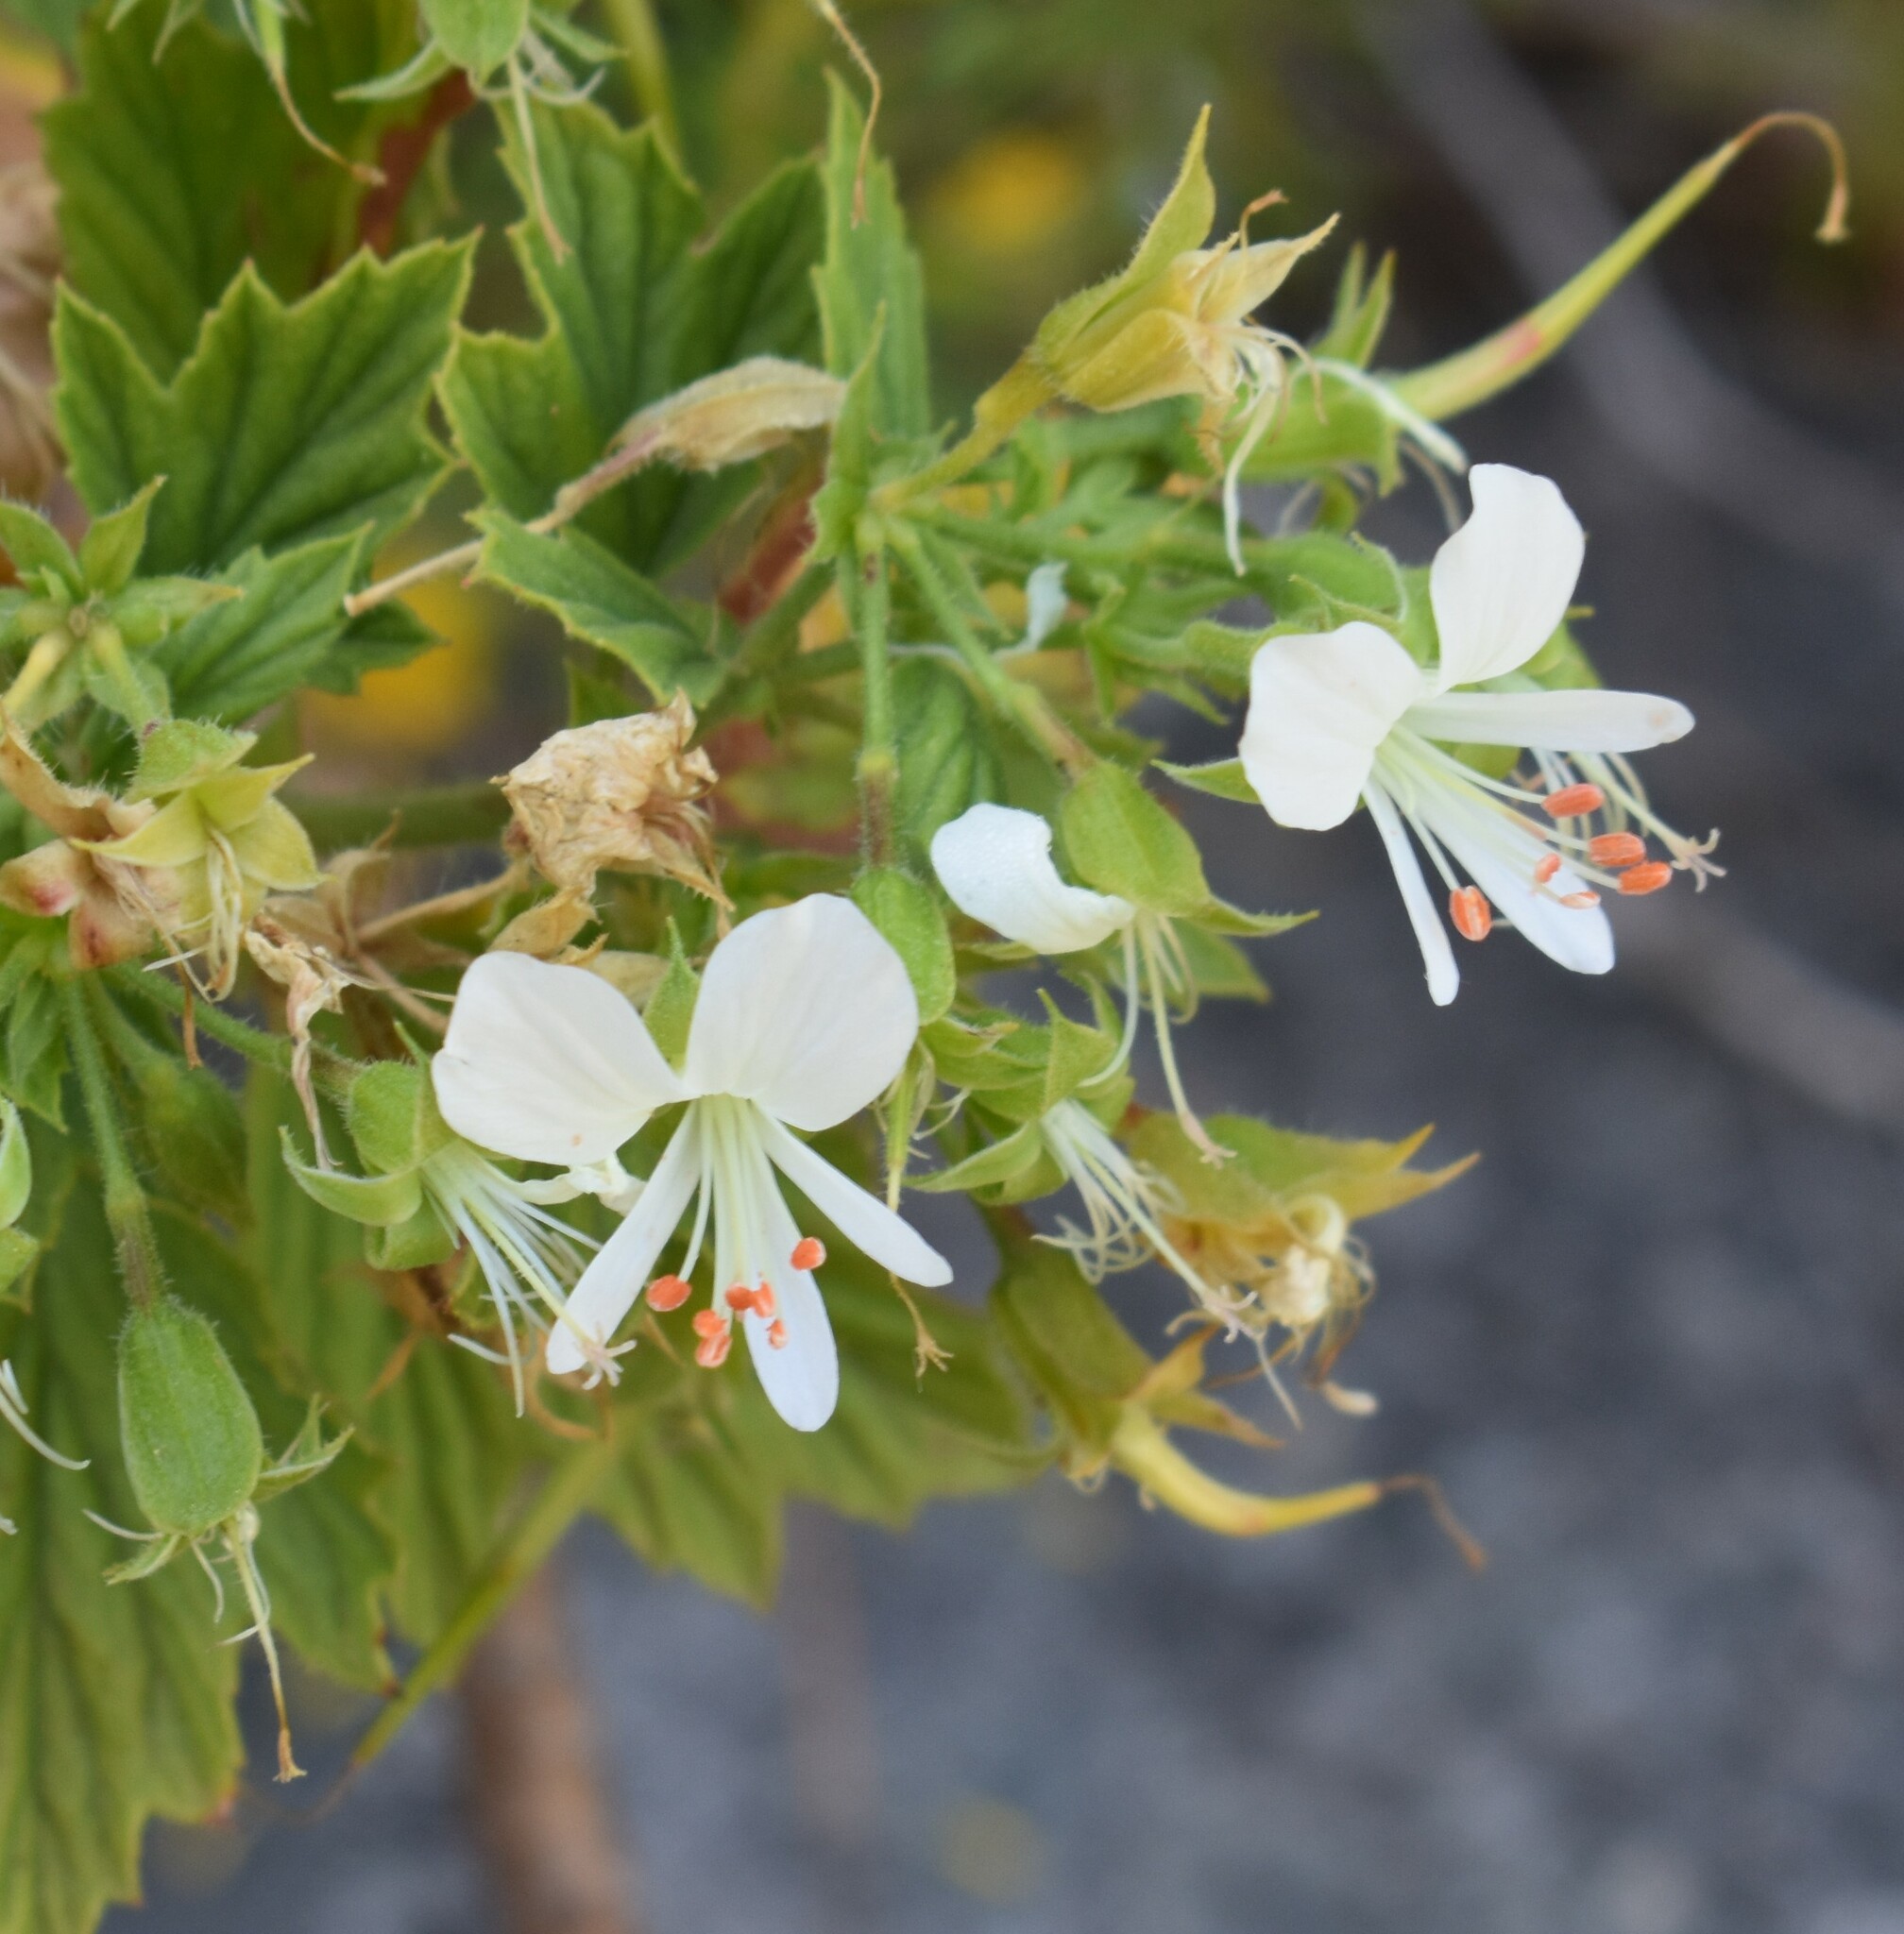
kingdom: Plantae
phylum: Tracheophyta
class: Magnoliopsida
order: Geraniales
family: Geraniaceae
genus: Pelargonium
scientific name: Pelargonium ribifolium
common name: Currant-leaf pelargonium
